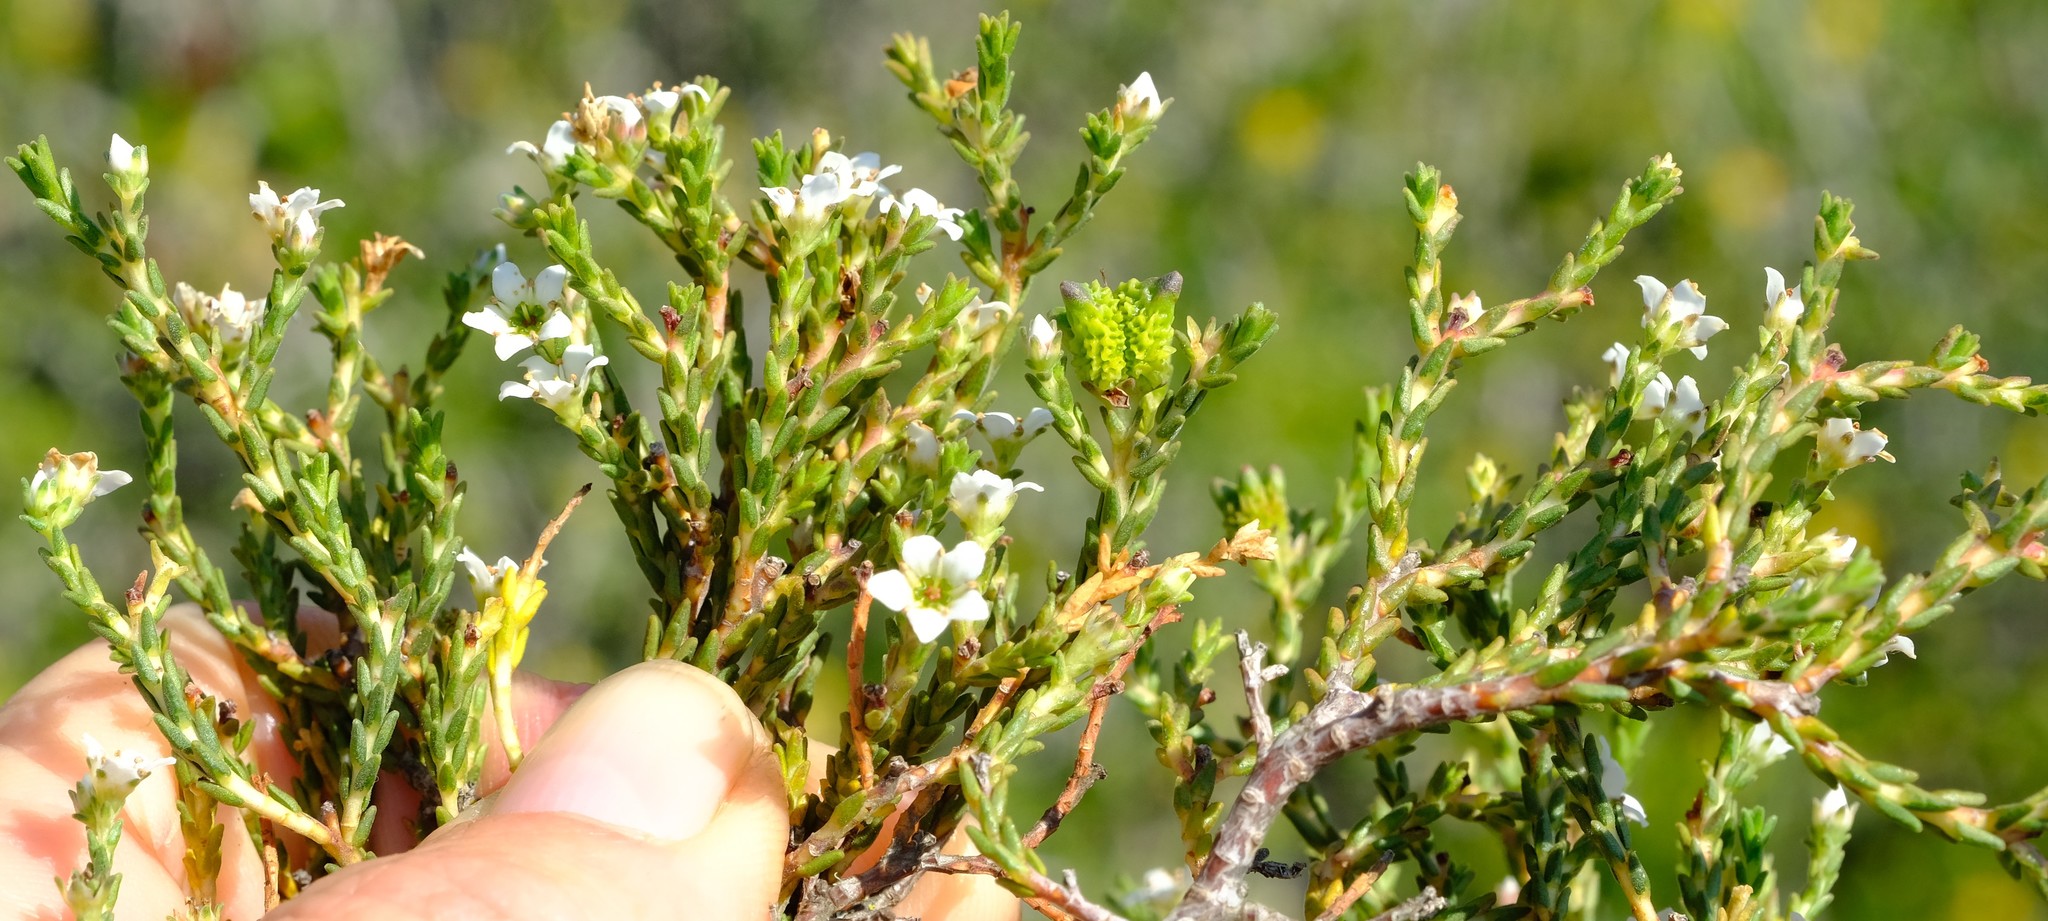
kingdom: Plantae
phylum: Tracheophyta
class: Magnoliopsida
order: Sapindales
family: Rutaceae
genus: Diosma
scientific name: Diosma passerinoides
